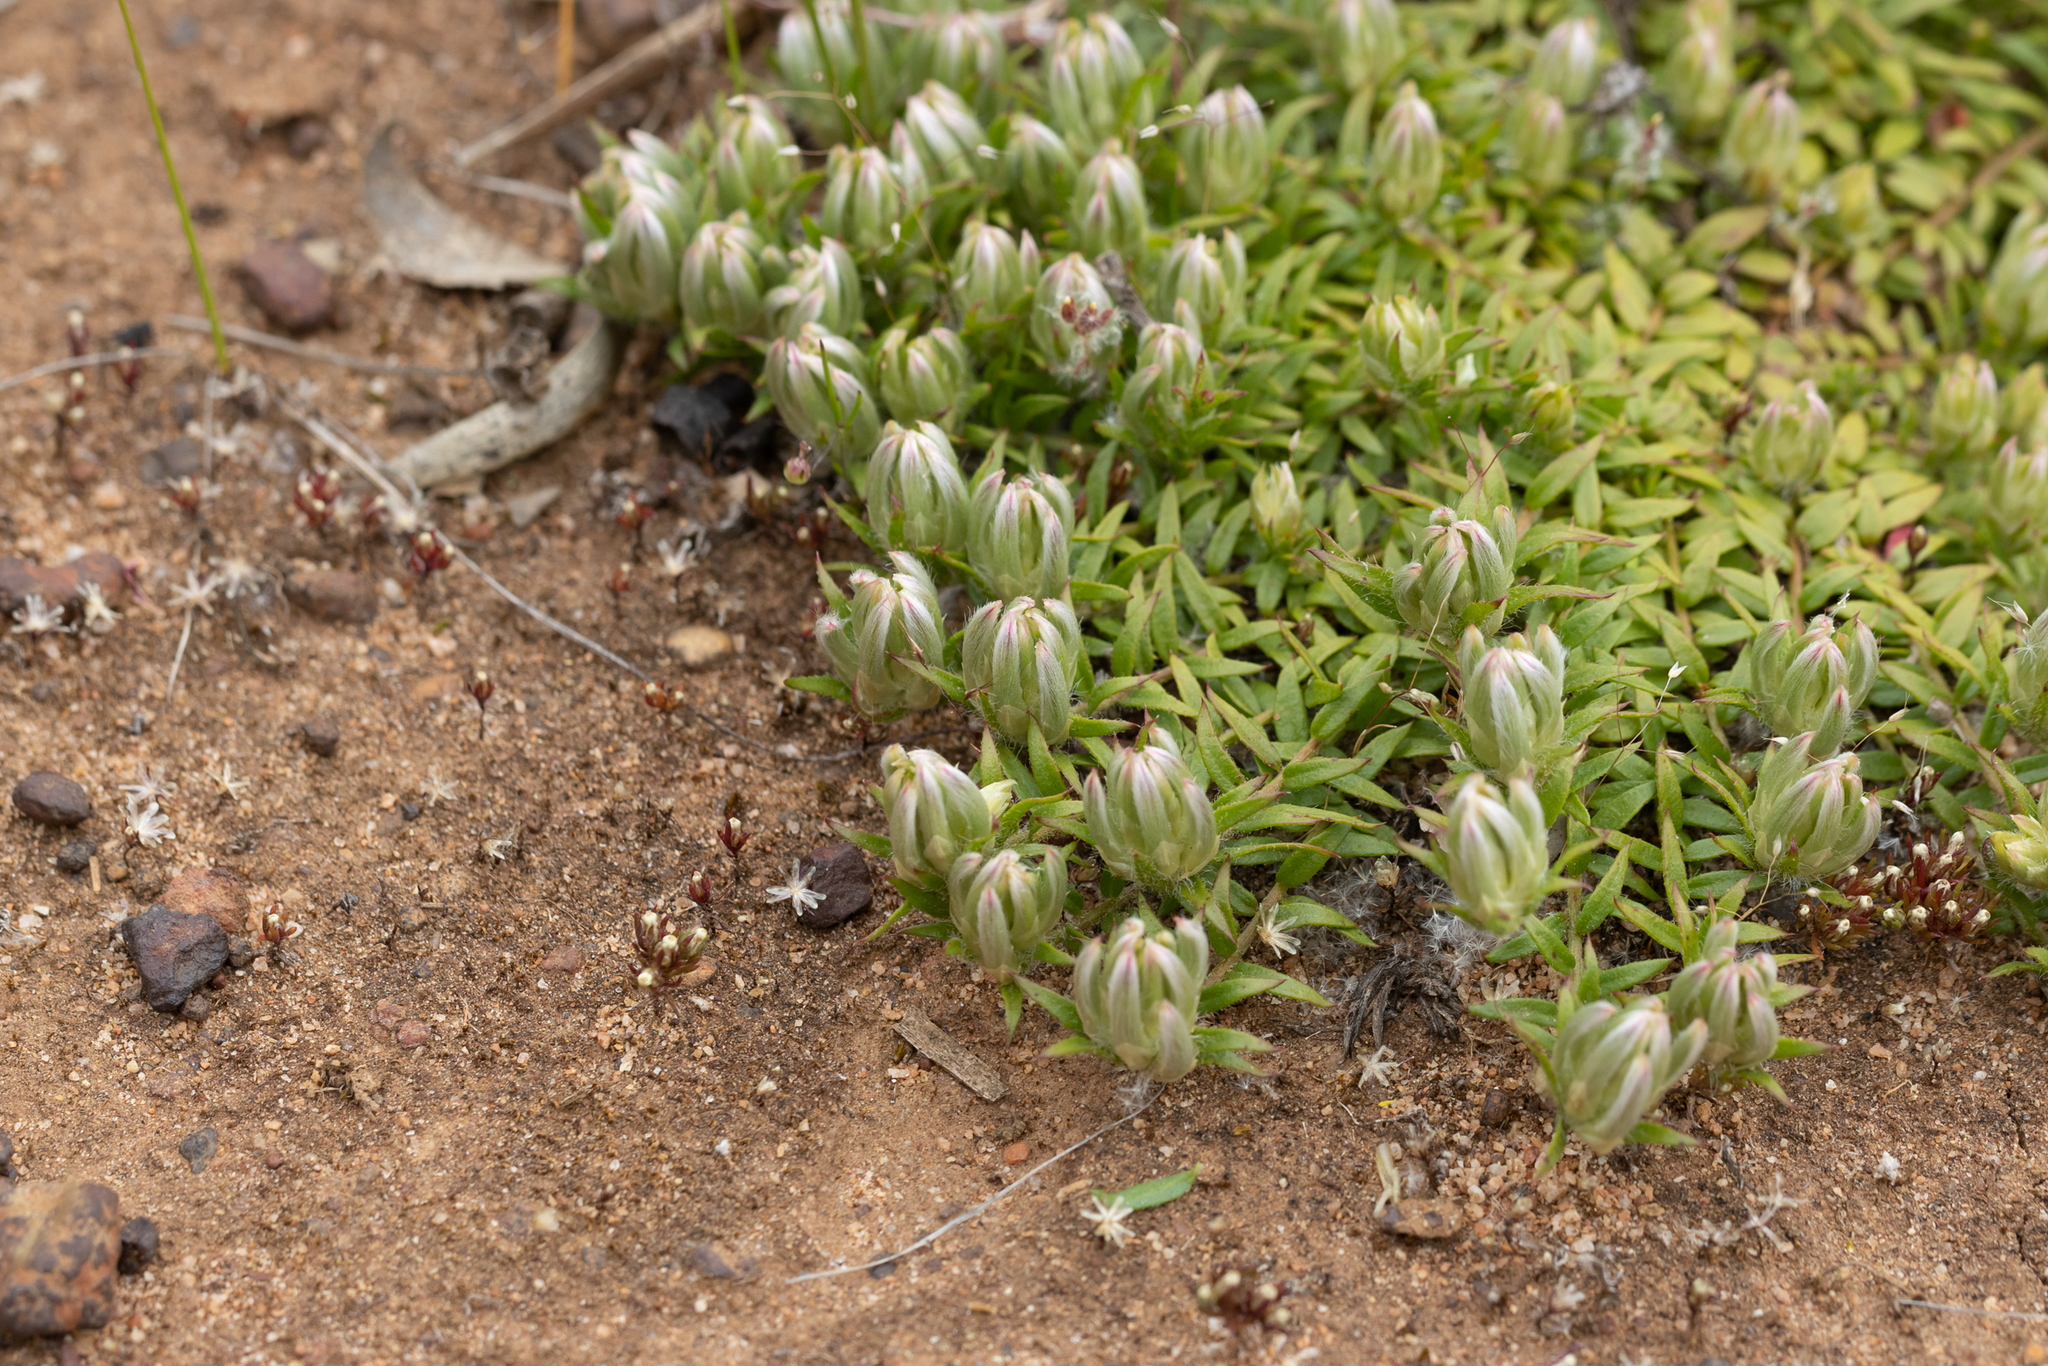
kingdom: Plantae
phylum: Tracheophyta
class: Magnoliopsida
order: Caryophyllales
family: Amaranthaceae
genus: Ptilotus
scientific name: Ptilotus declinatus
